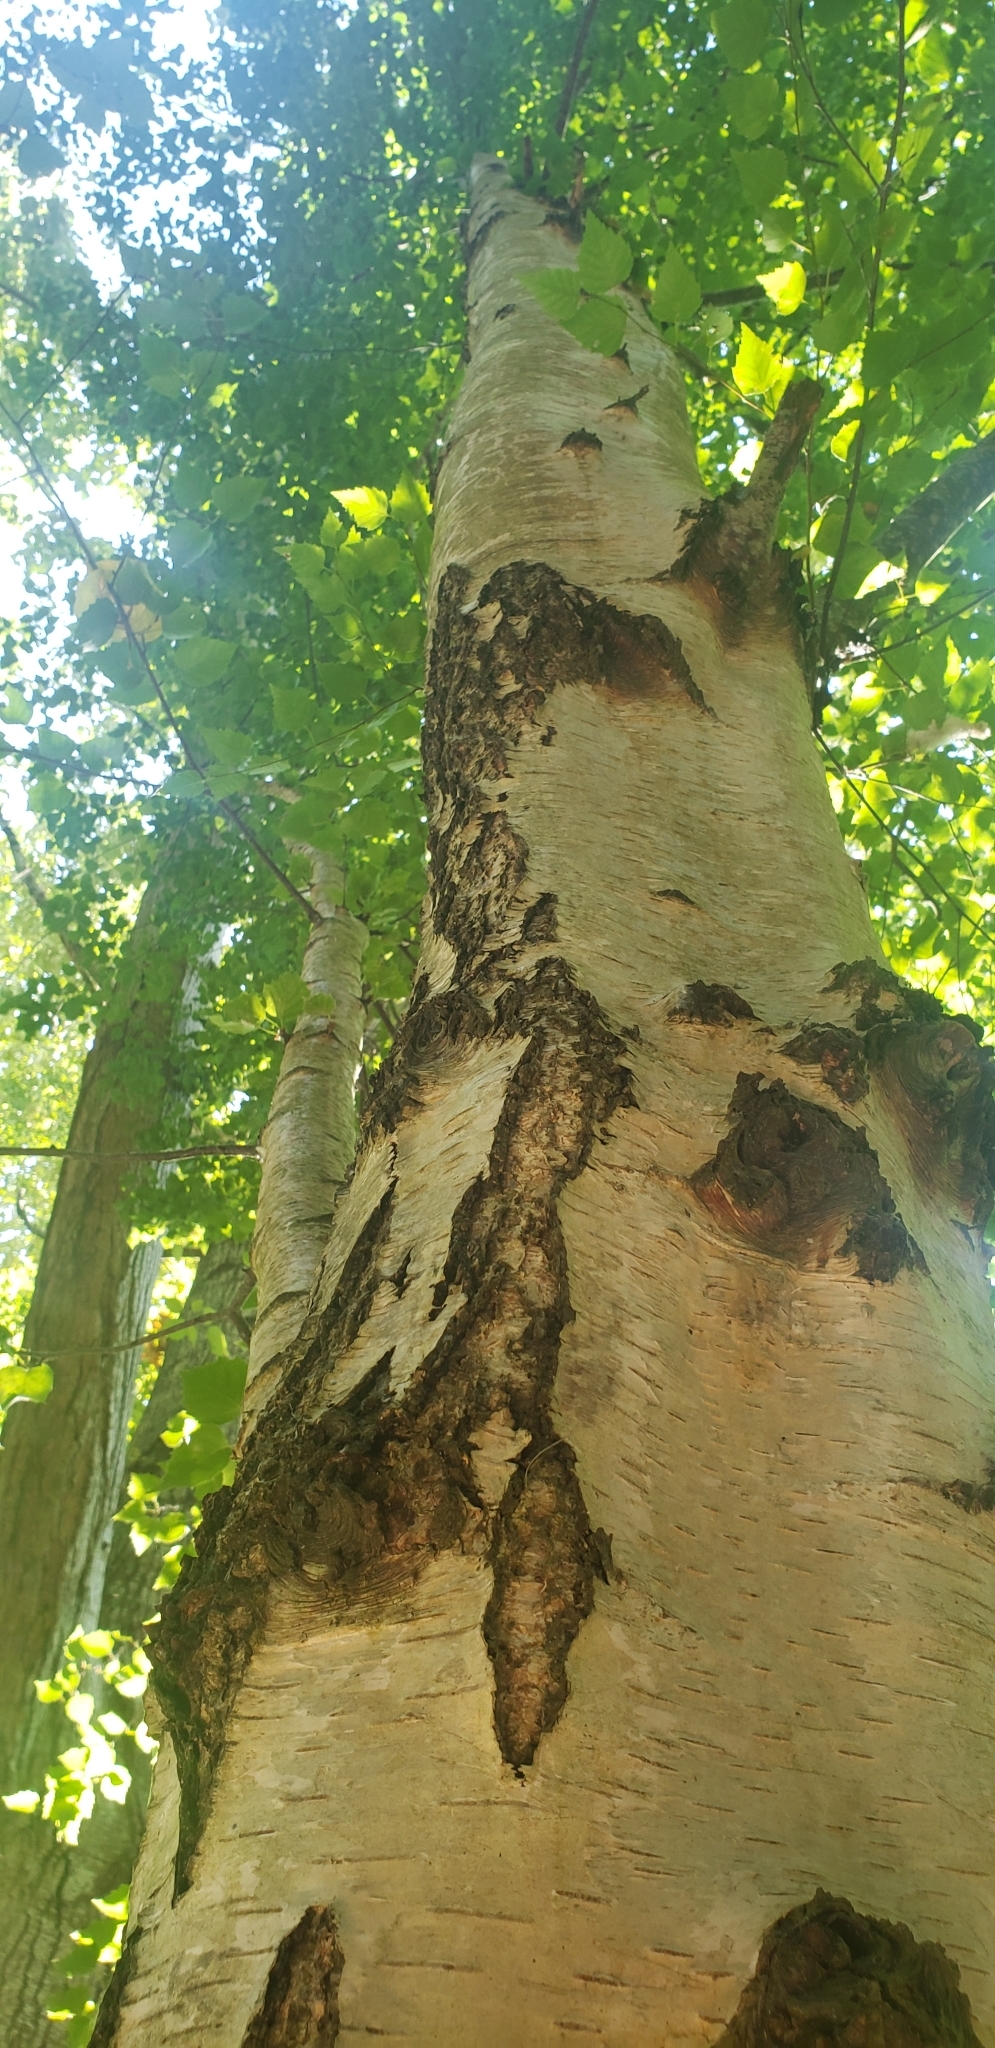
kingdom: Plantae
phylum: Tracheophyta
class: Magnoliopsida
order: Fagales
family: Betulaceae
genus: Betula
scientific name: Betula pendula
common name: Silver birch
